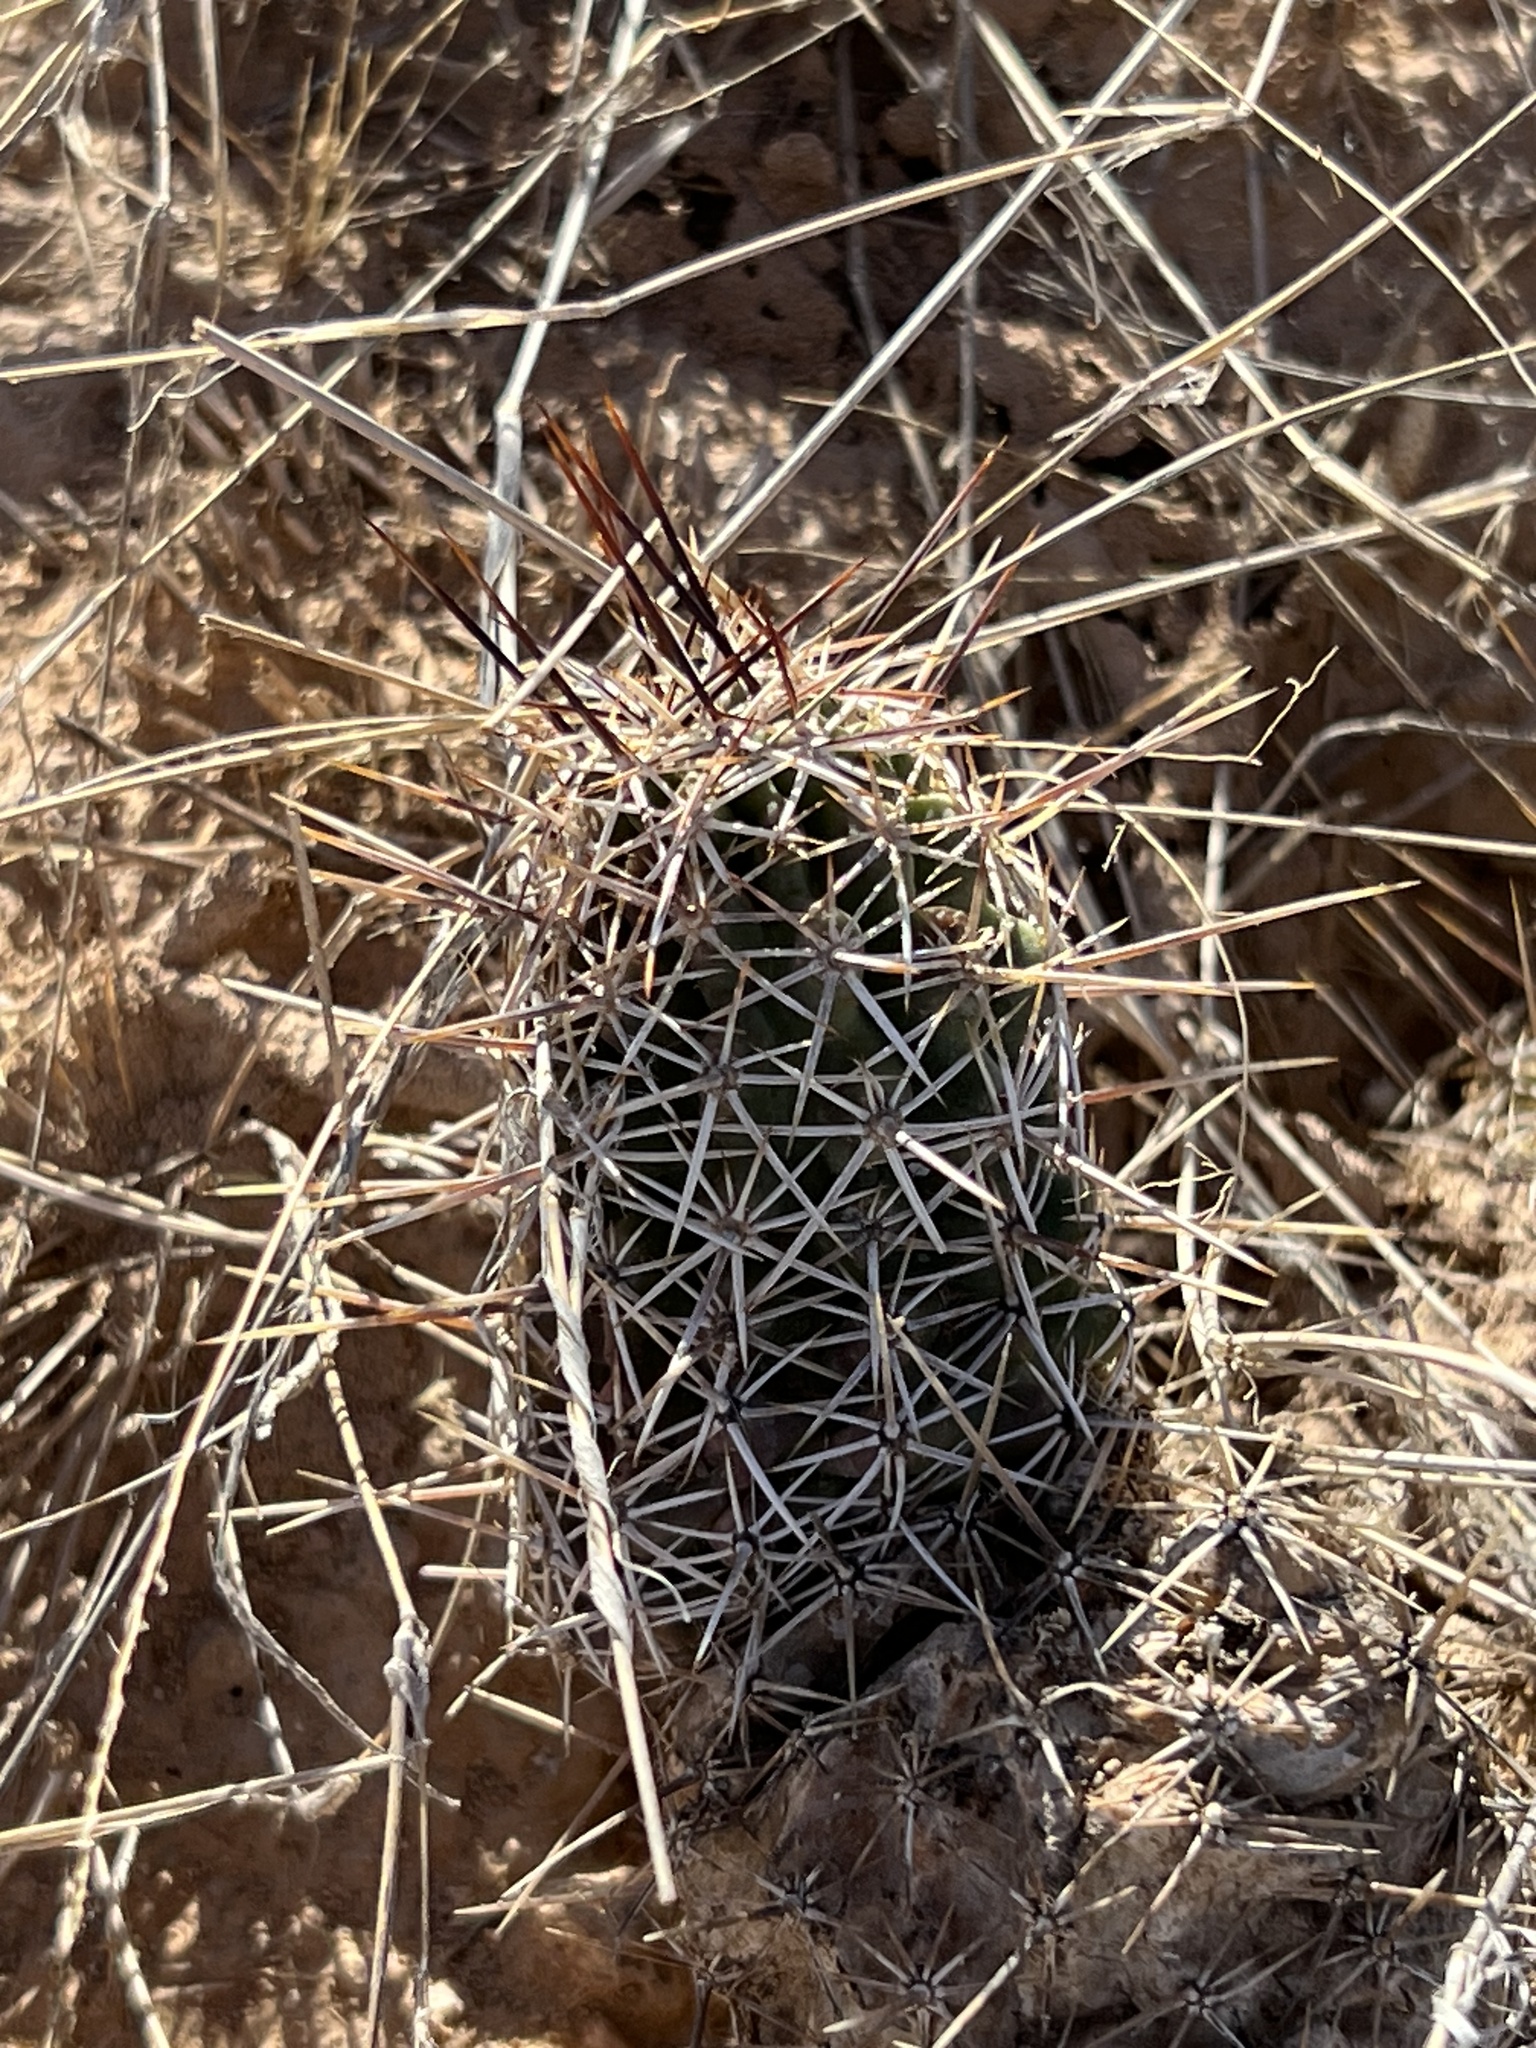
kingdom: Plantae
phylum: Tracheophyta
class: Magnoliopsida
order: Caryophyllales
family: Cactaceae
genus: Echinocereus
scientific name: Echinocereus fendleri
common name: Fendler's hedgehog cactus
